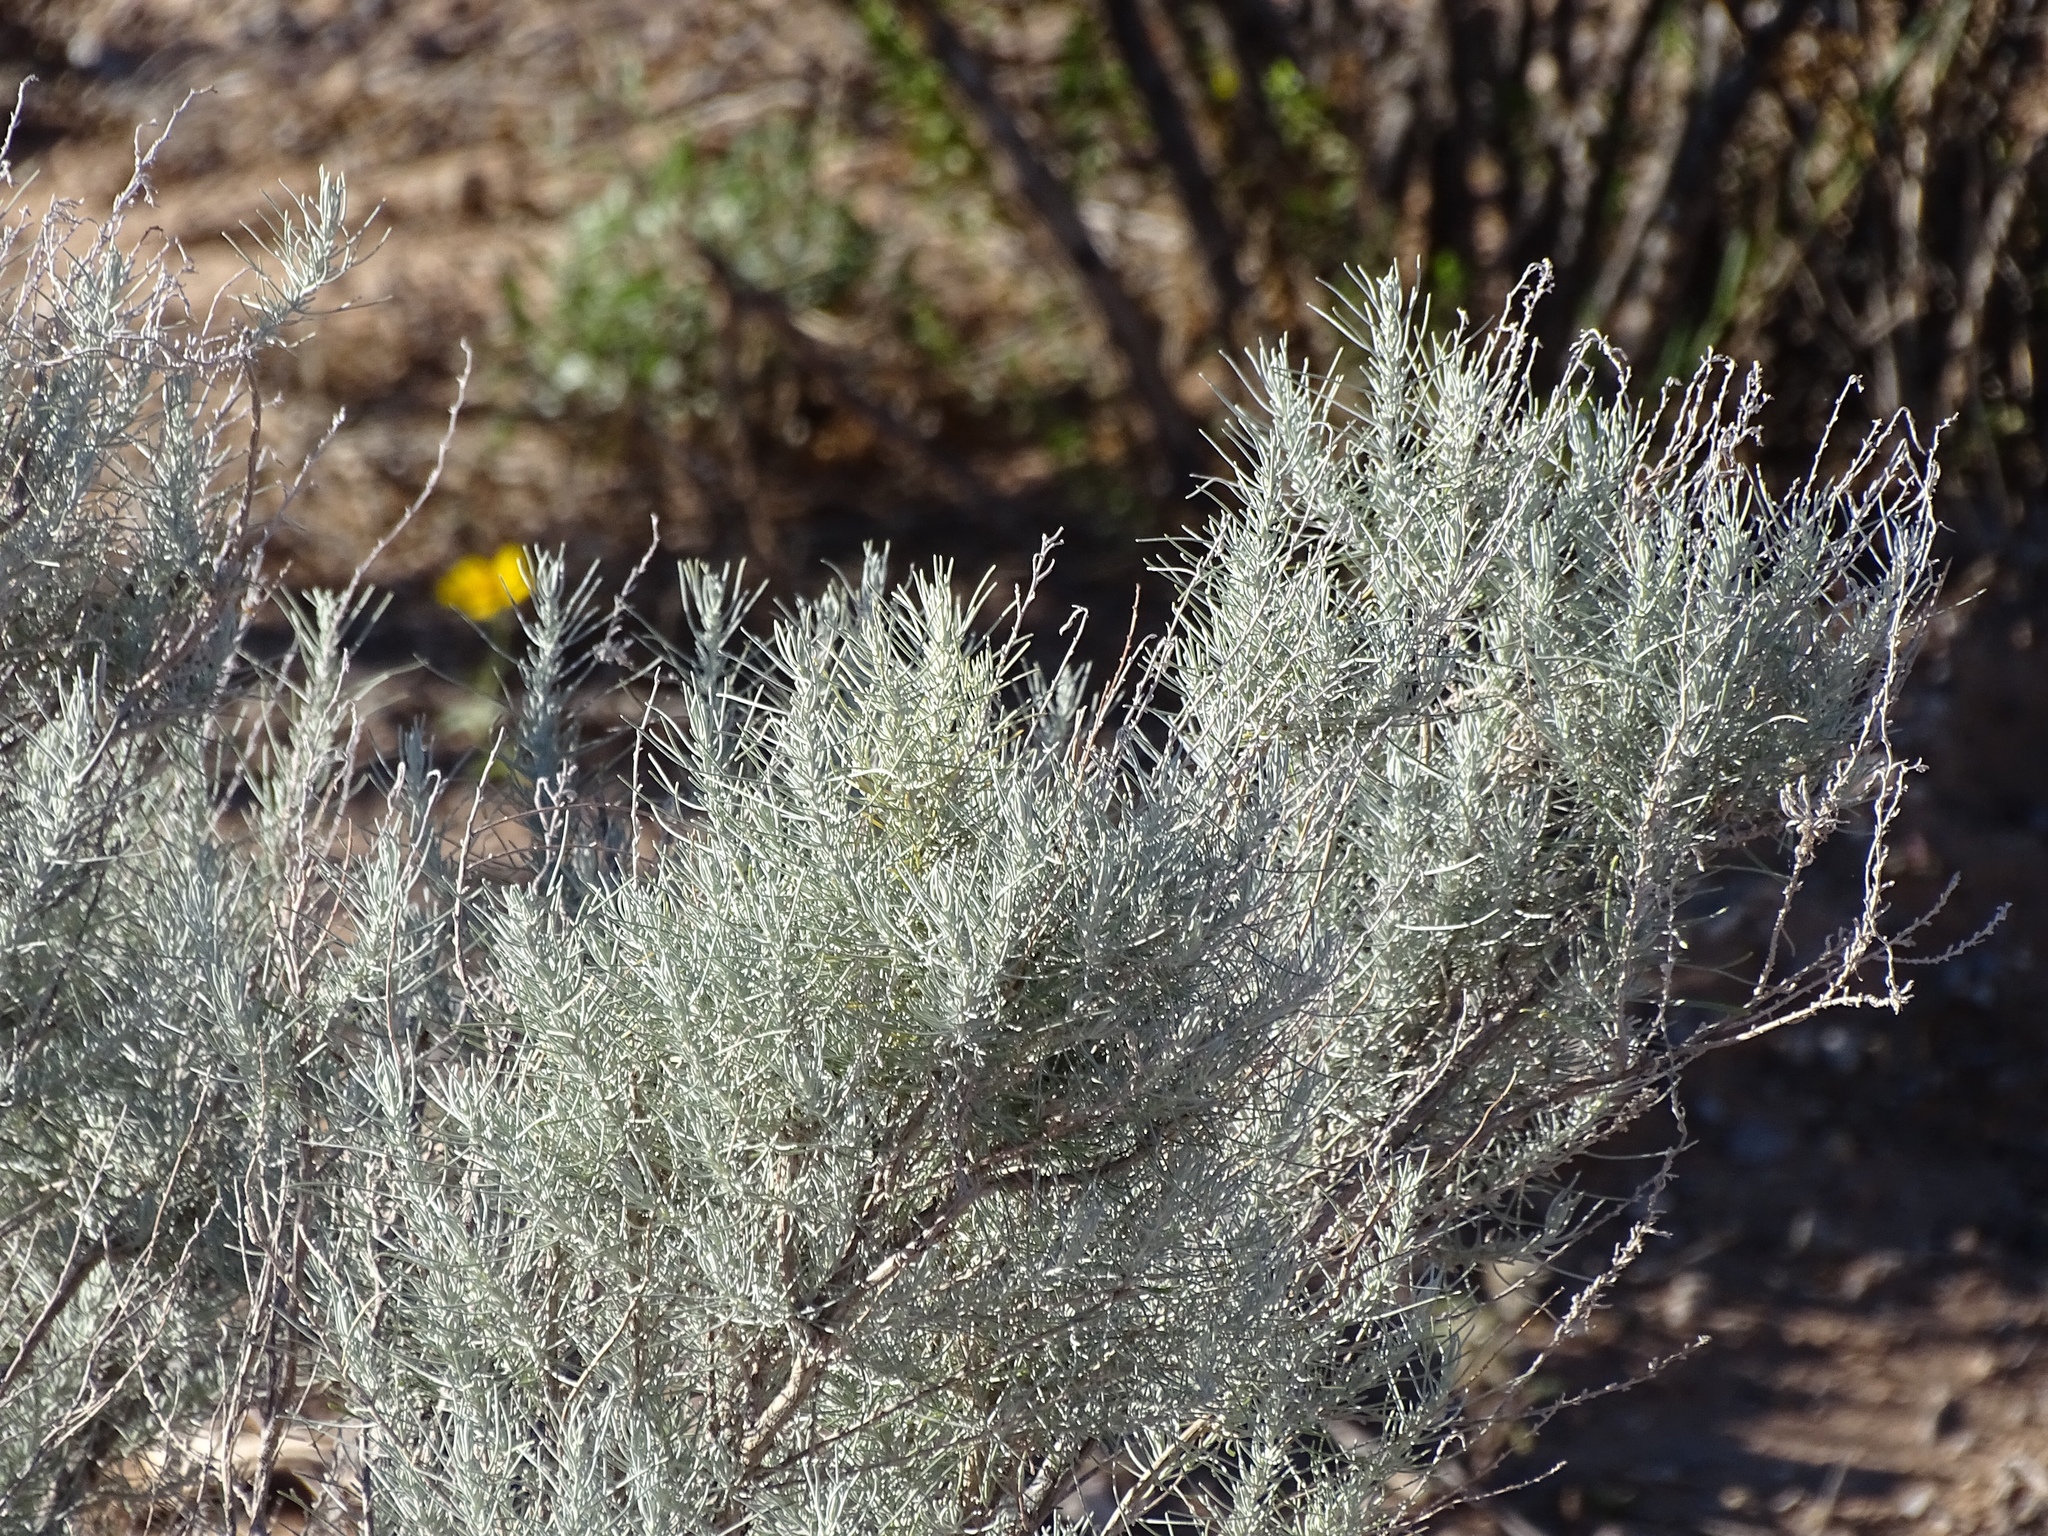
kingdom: Plantae
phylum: Tracheophyta
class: Magnoliopsida
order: Asterales
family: Asteraceae
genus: Artemisia
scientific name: Artemisia filifolia
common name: Sand-sage
